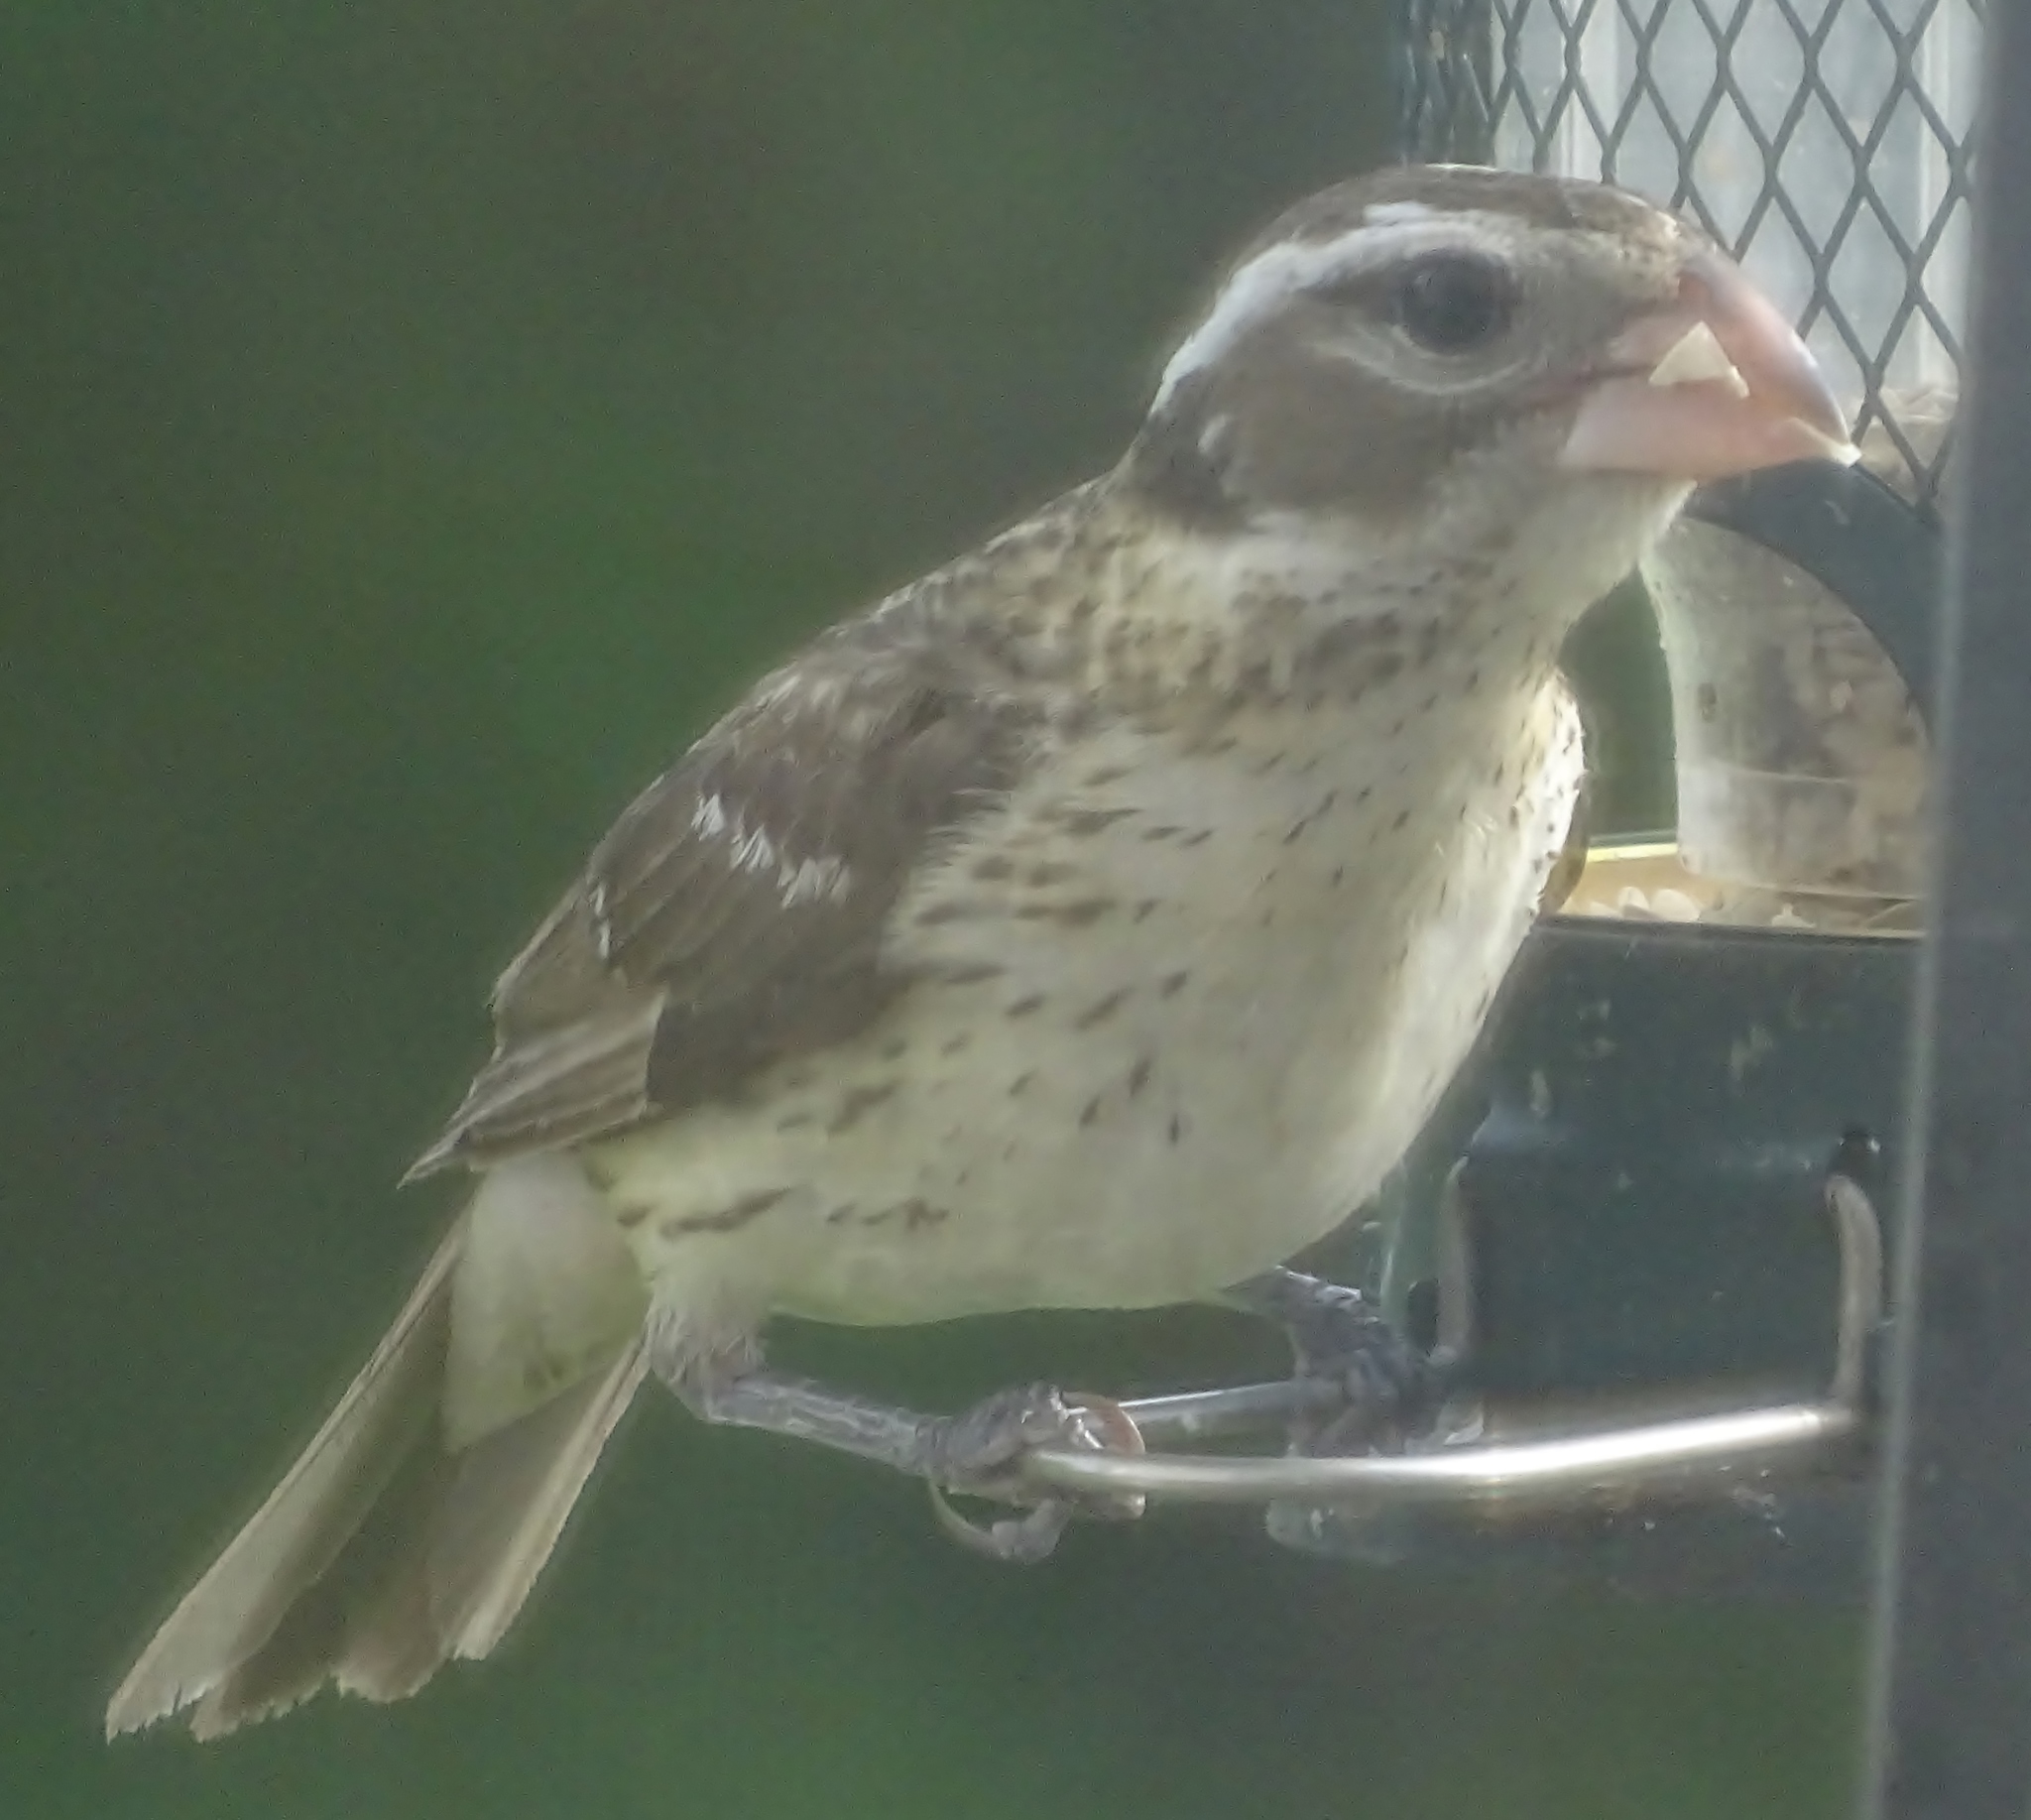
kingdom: Animalia
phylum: Chordata
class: Aves
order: Passeriformes
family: Cardinalidae
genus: Pheucticus
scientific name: Pheucticus ludovicianus
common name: Rose-breasted grosbeak
